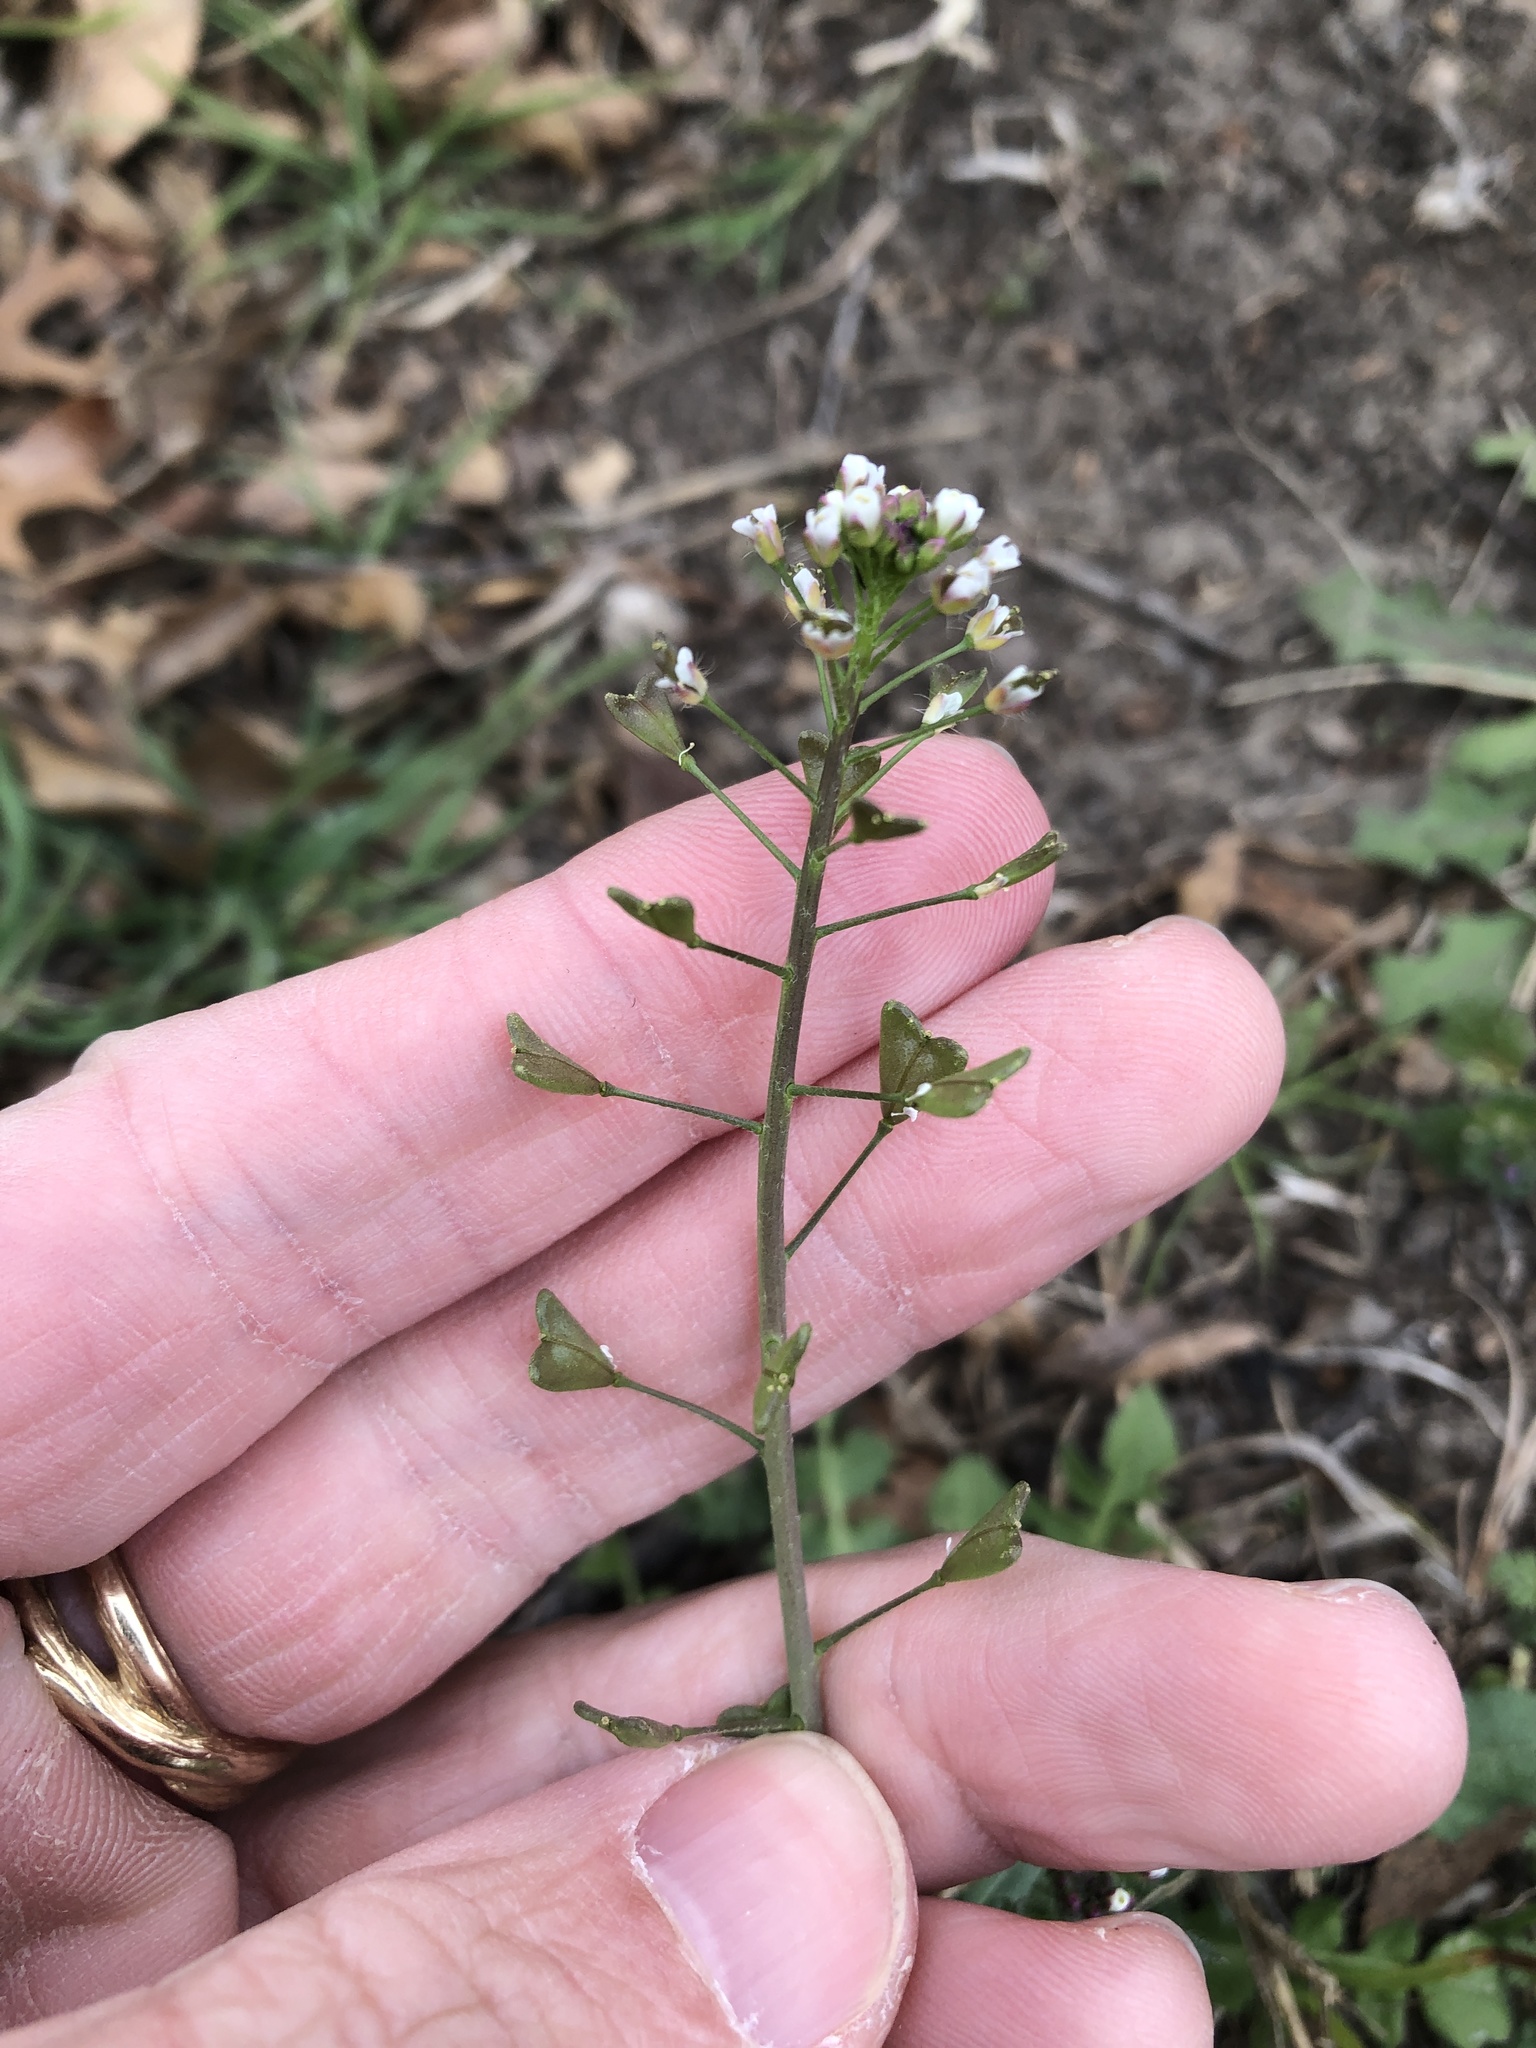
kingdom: Plantae
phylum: Tracheophyta
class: Magnoliopsida
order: Brassicales
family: Brassicaceae
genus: Capsella
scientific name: Capsella bursa-pastoris
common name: Shepherd's purse
